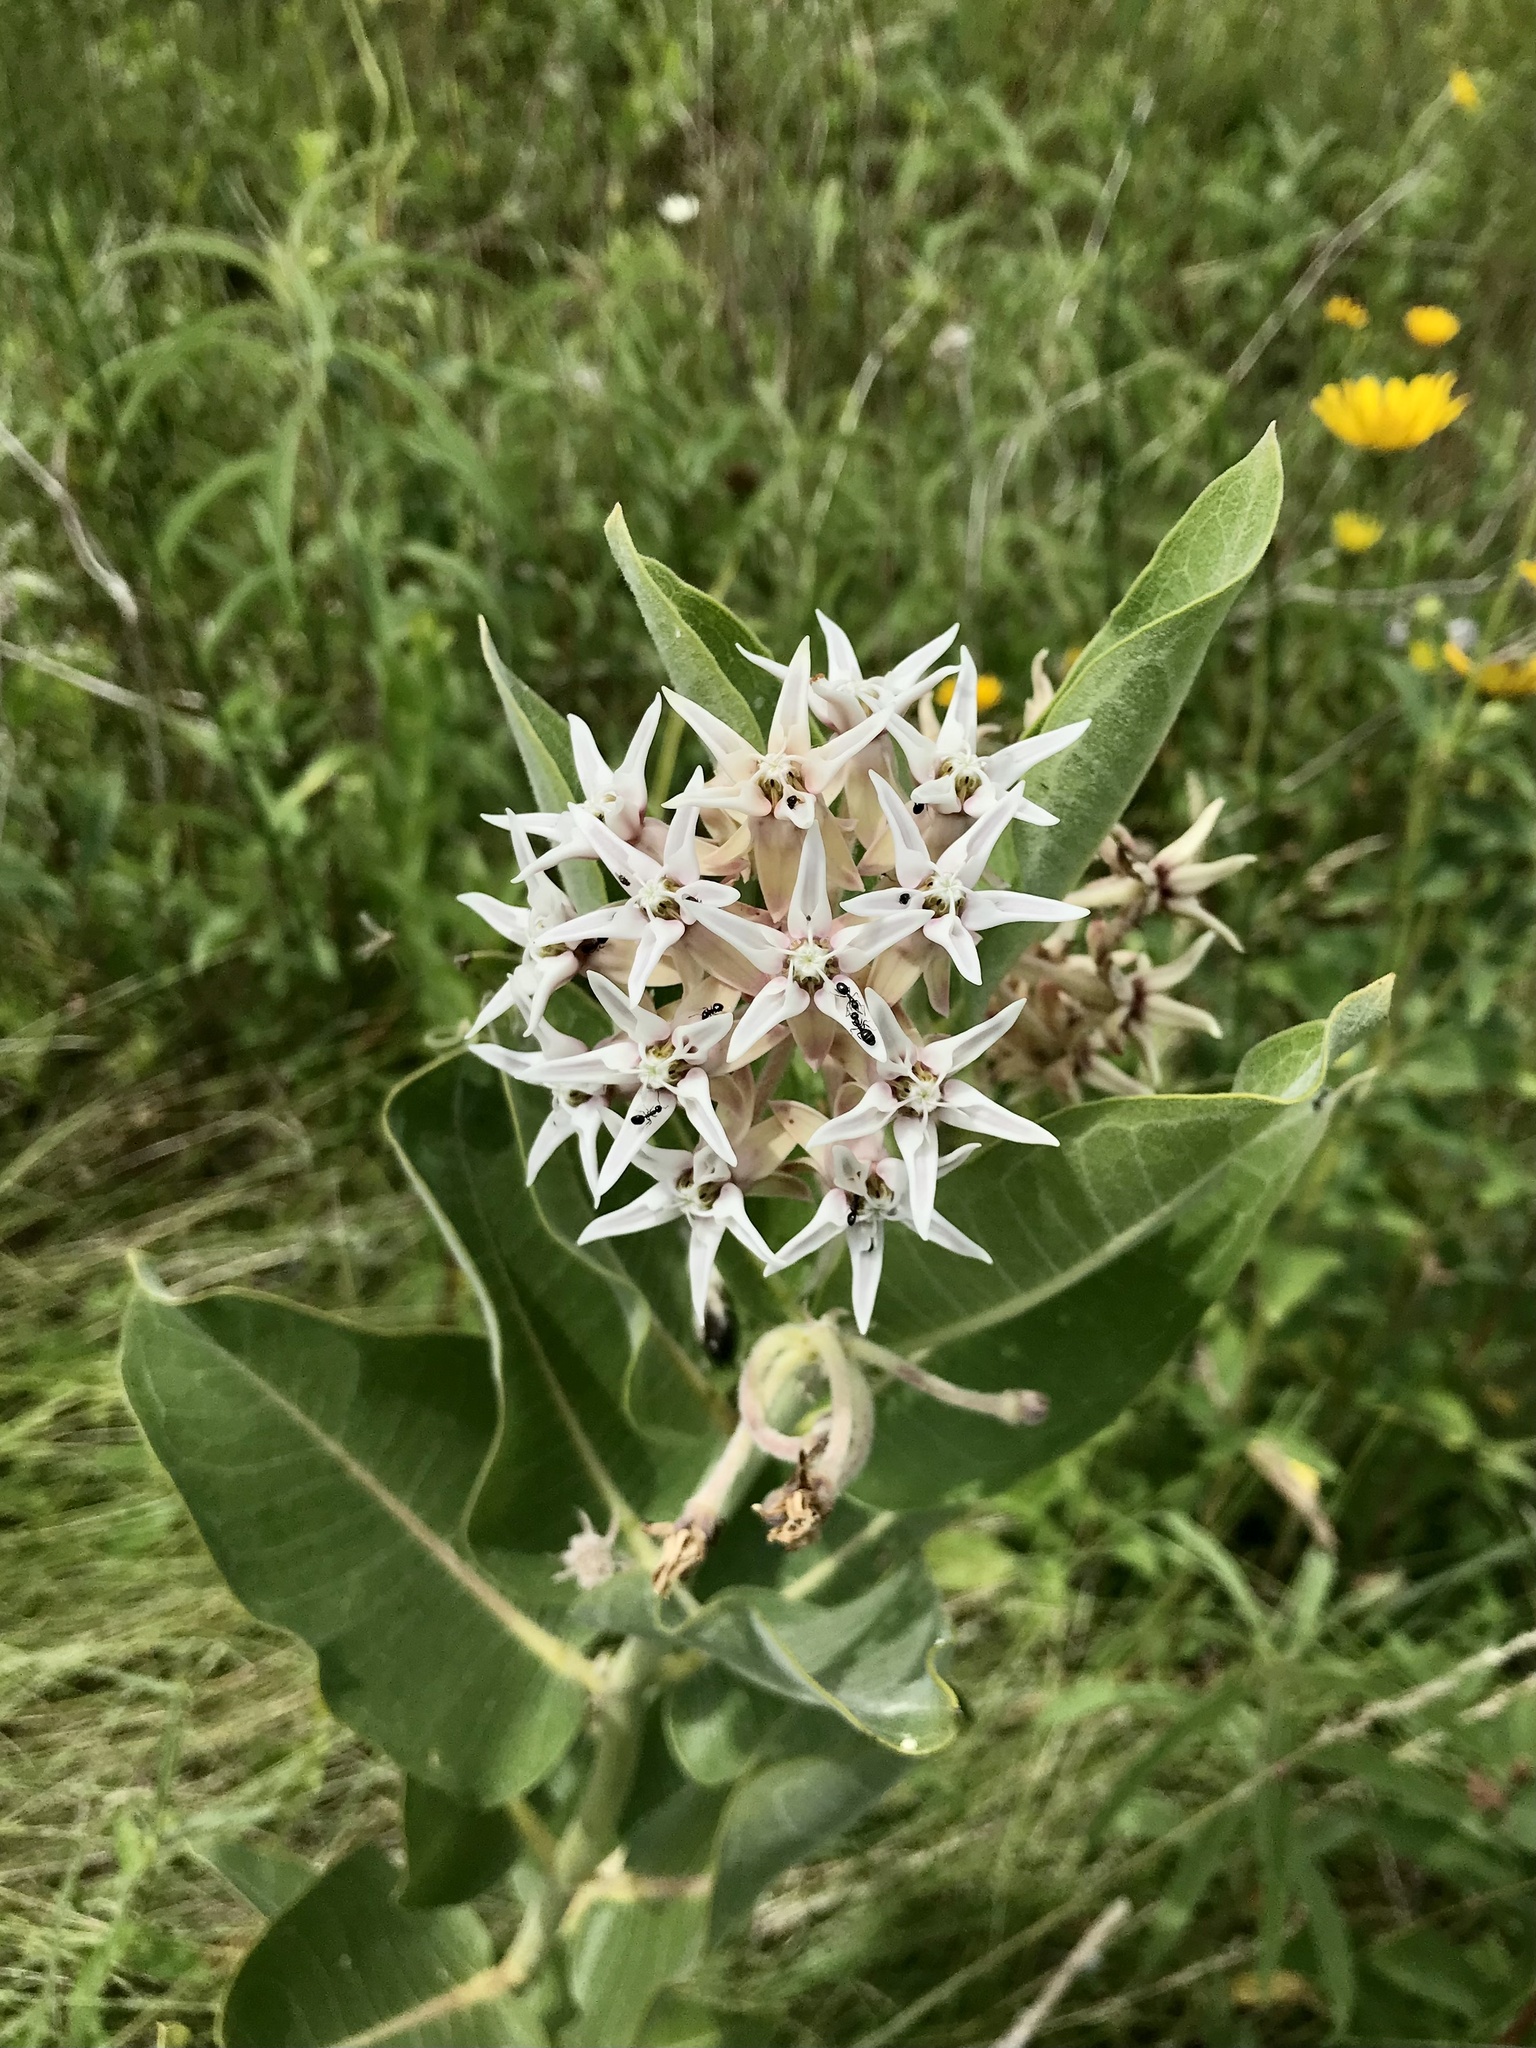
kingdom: Plantae
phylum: Tracheophyta
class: Magnoliopsida
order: Gentianales
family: Apocynaceae
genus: Asclepias
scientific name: Asclepias speciosa
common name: Showy milkweed
